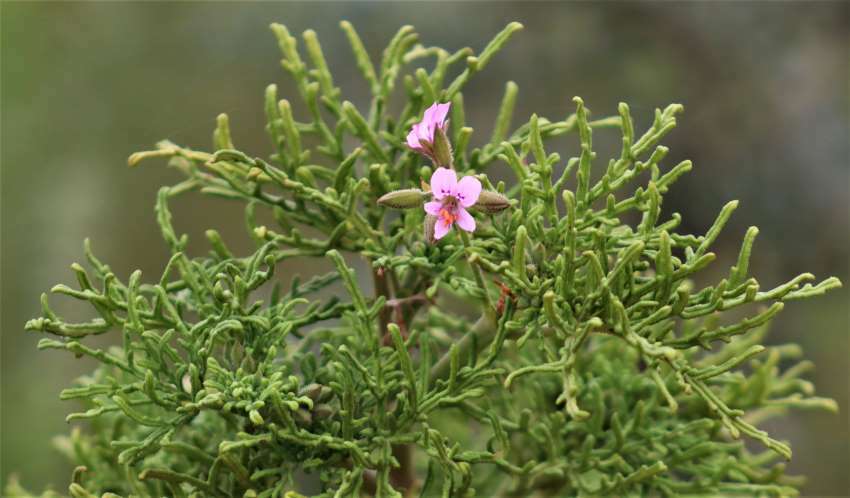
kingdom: Plantae
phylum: Tracheophyta
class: Magnoliopsida
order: Geraniales
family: Geraniaceae
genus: Pelargonium
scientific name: Pelargonium radens
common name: Rasp-leaf pelargonium
